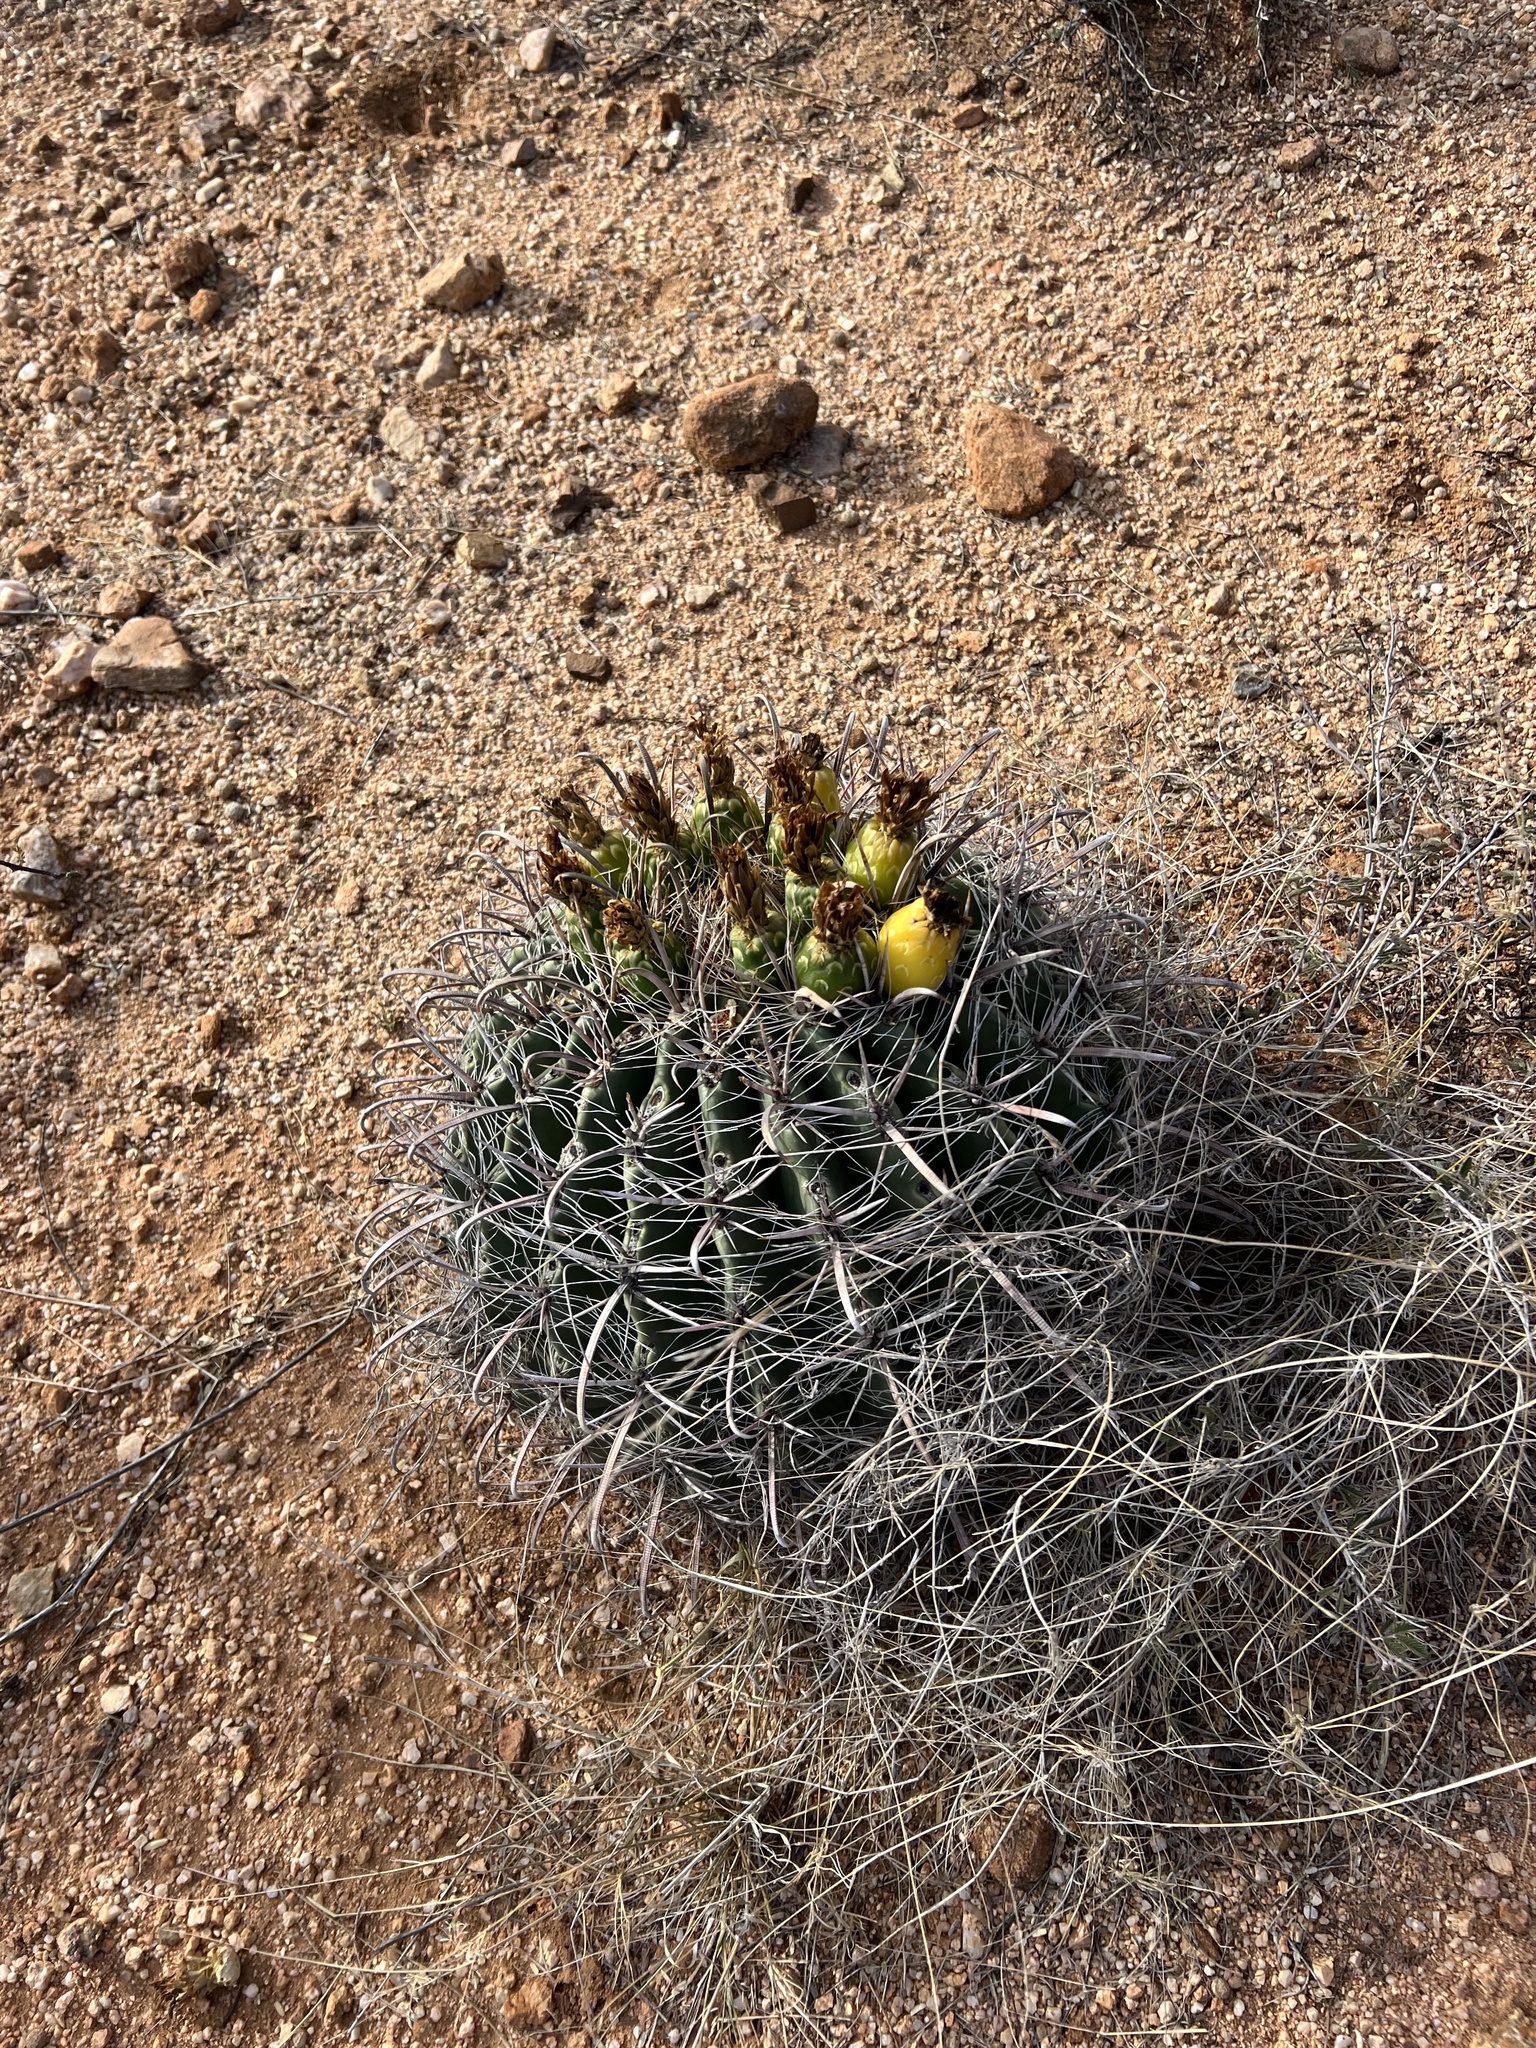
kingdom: Plantae
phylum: Tracheophyta
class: Magnoliopsida
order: Caryophyllales
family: Cactaceae
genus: Ferocactus
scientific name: Ferocactus wislizeni
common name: Candy barrel cactus
